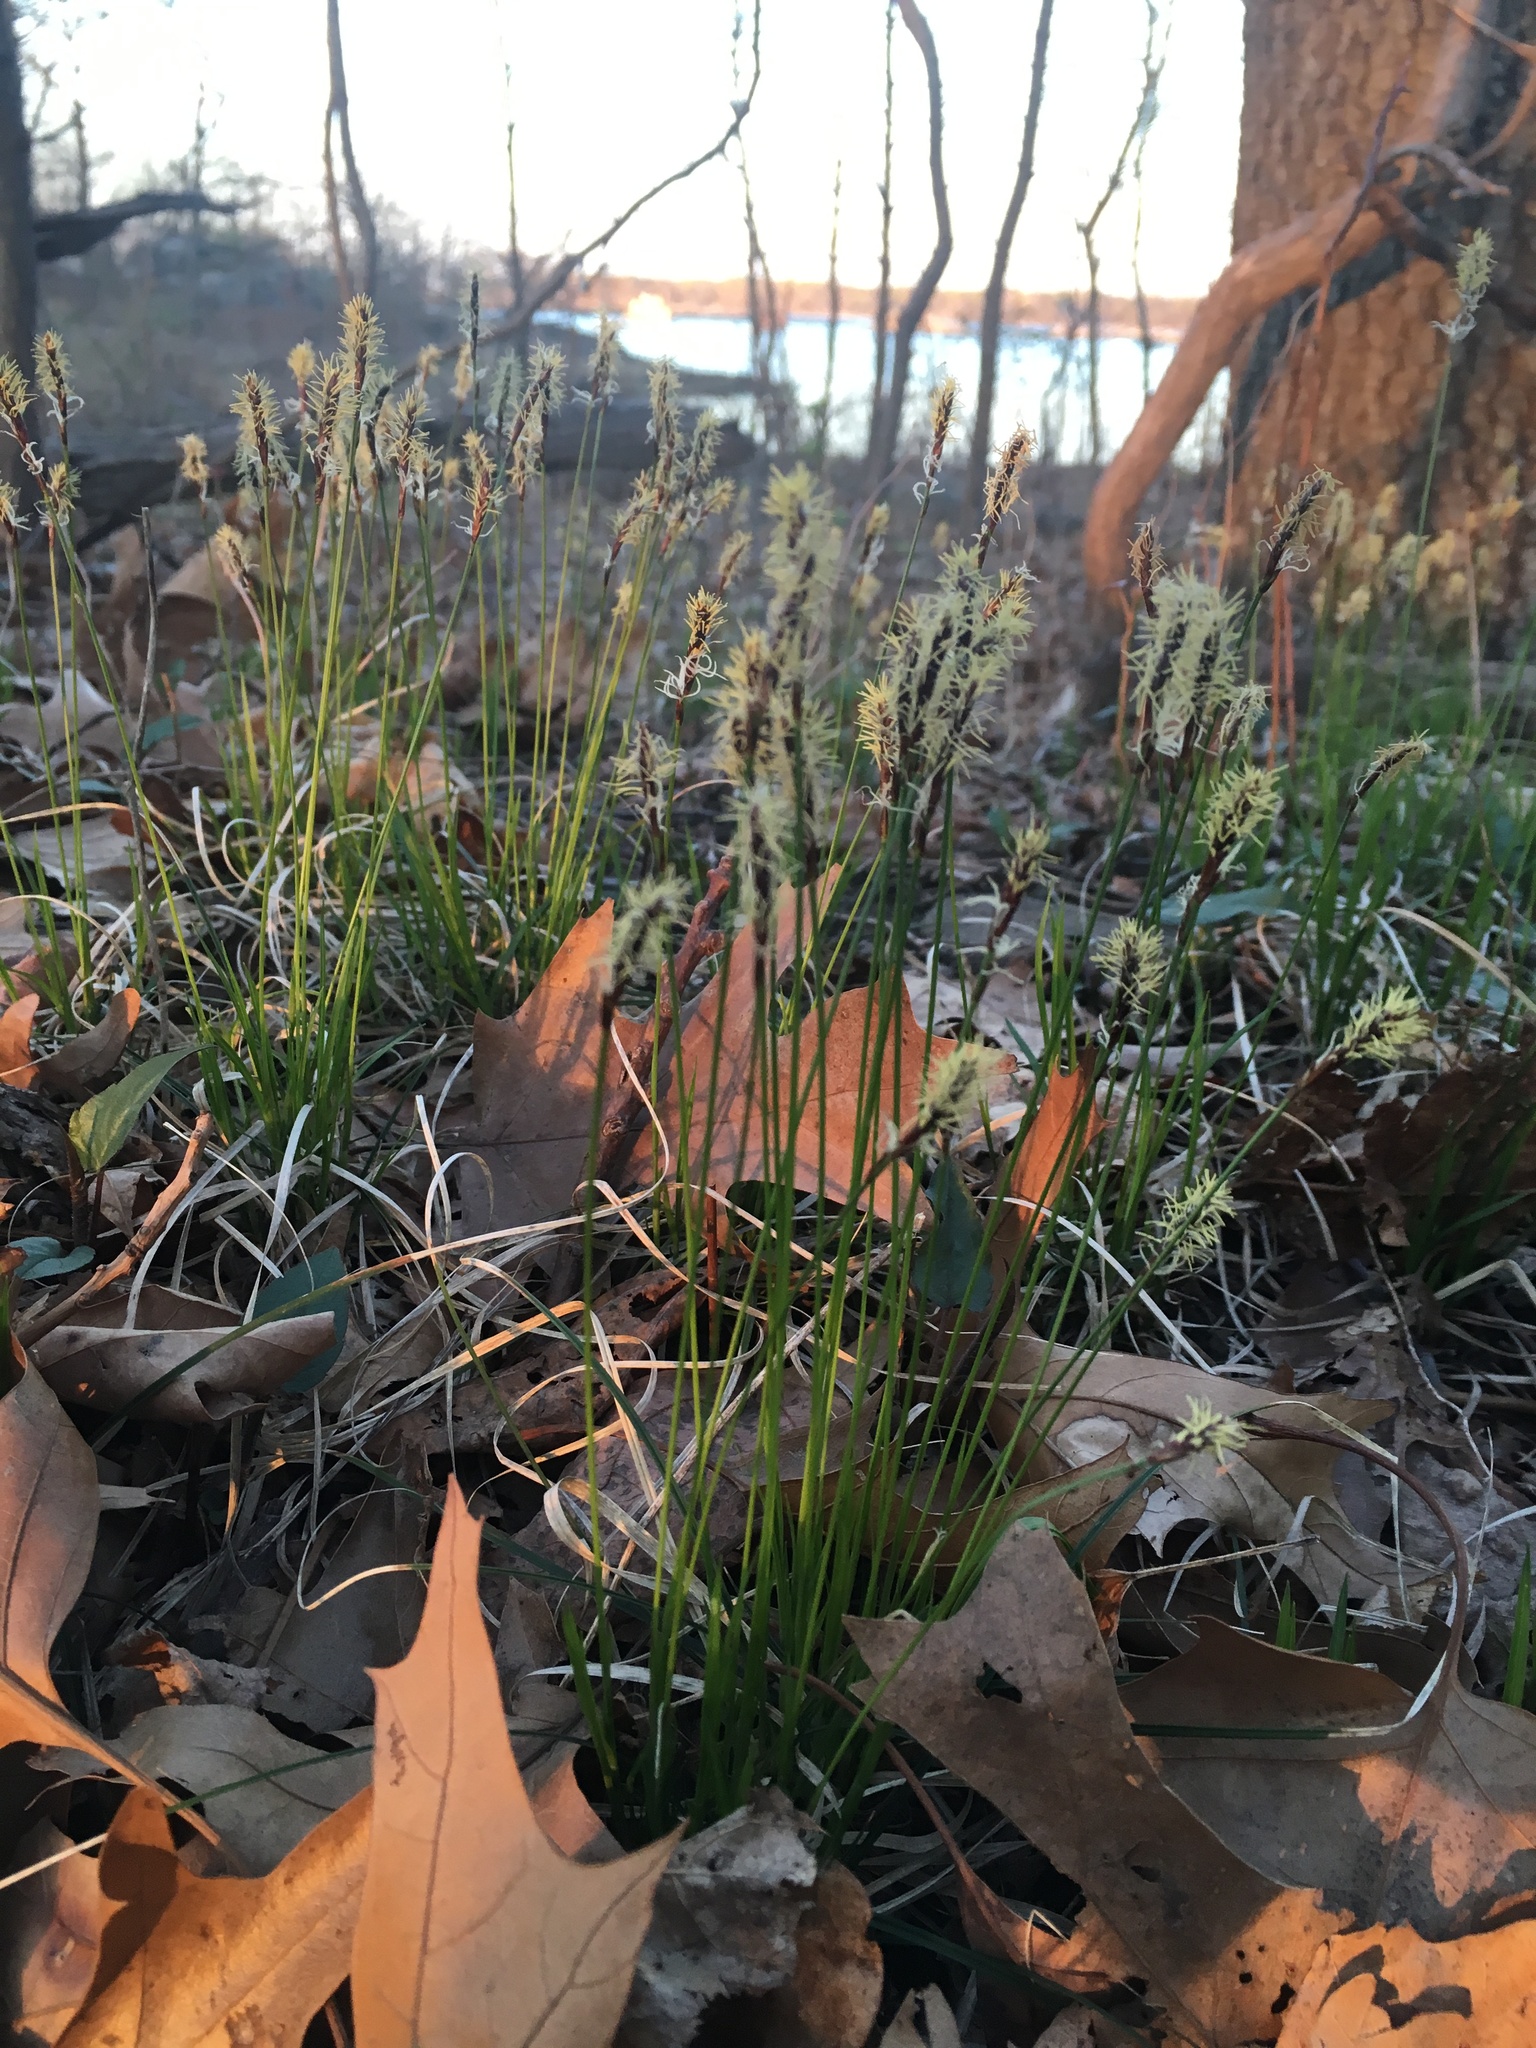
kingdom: Plantae
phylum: Tracheophyta
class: Liliopsida
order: Poales
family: Cyperaceae
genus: Carex
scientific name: Carex pensylvanica
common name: Common oak sedge
